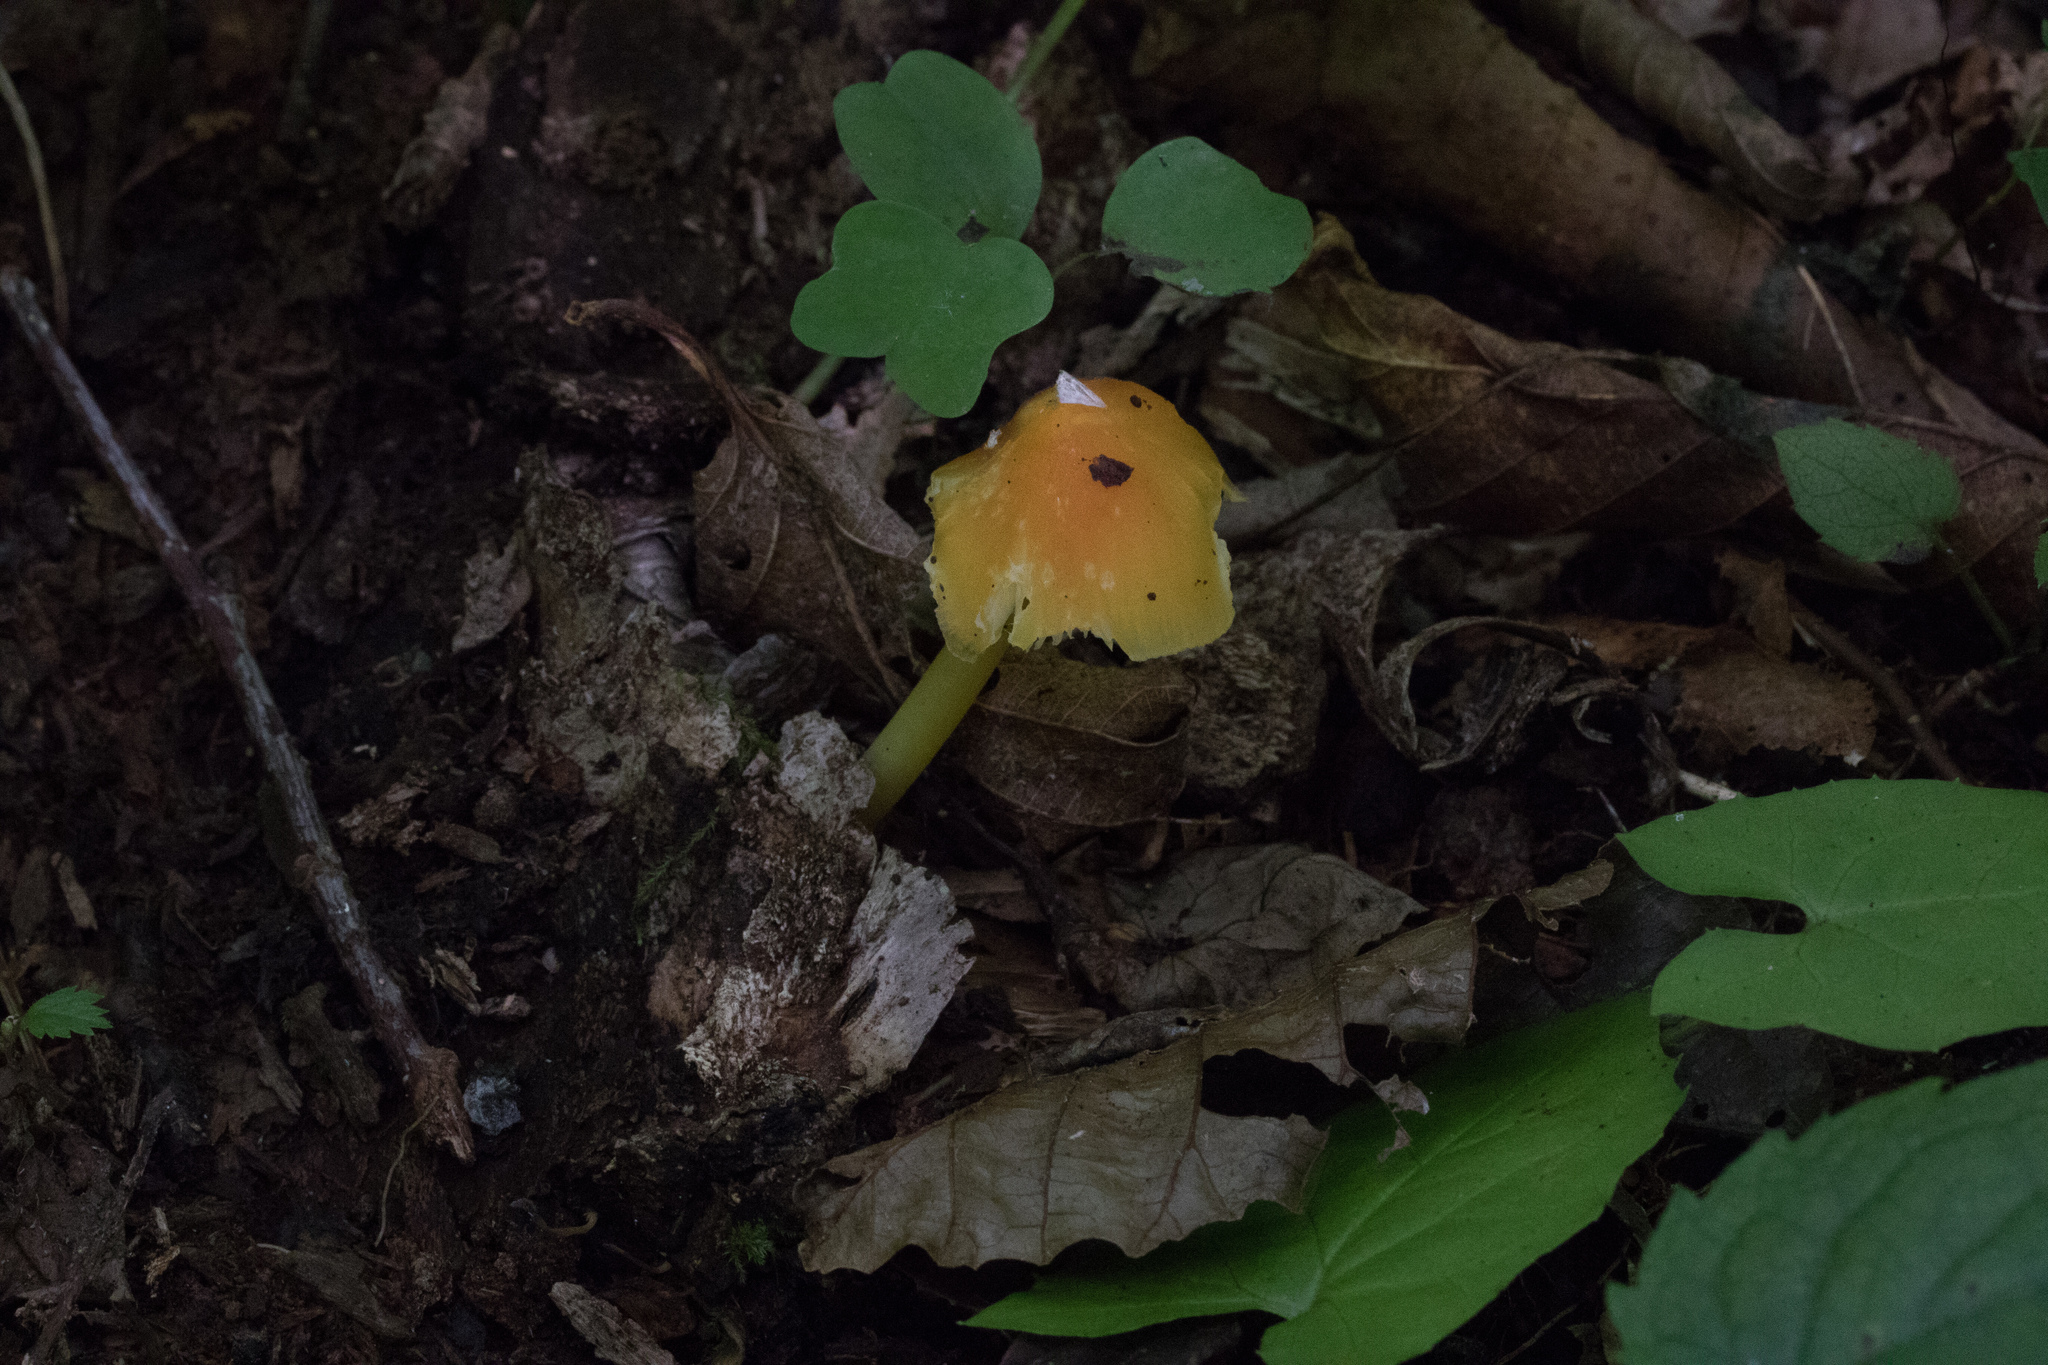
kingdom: Fungi
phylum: Basidiomycota
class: Agaricomycetes
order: Agaricales
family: Hygrophoraceae
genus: Hygrocybe
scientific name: Hygrocybe flavescens
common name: Golden waxy cap
